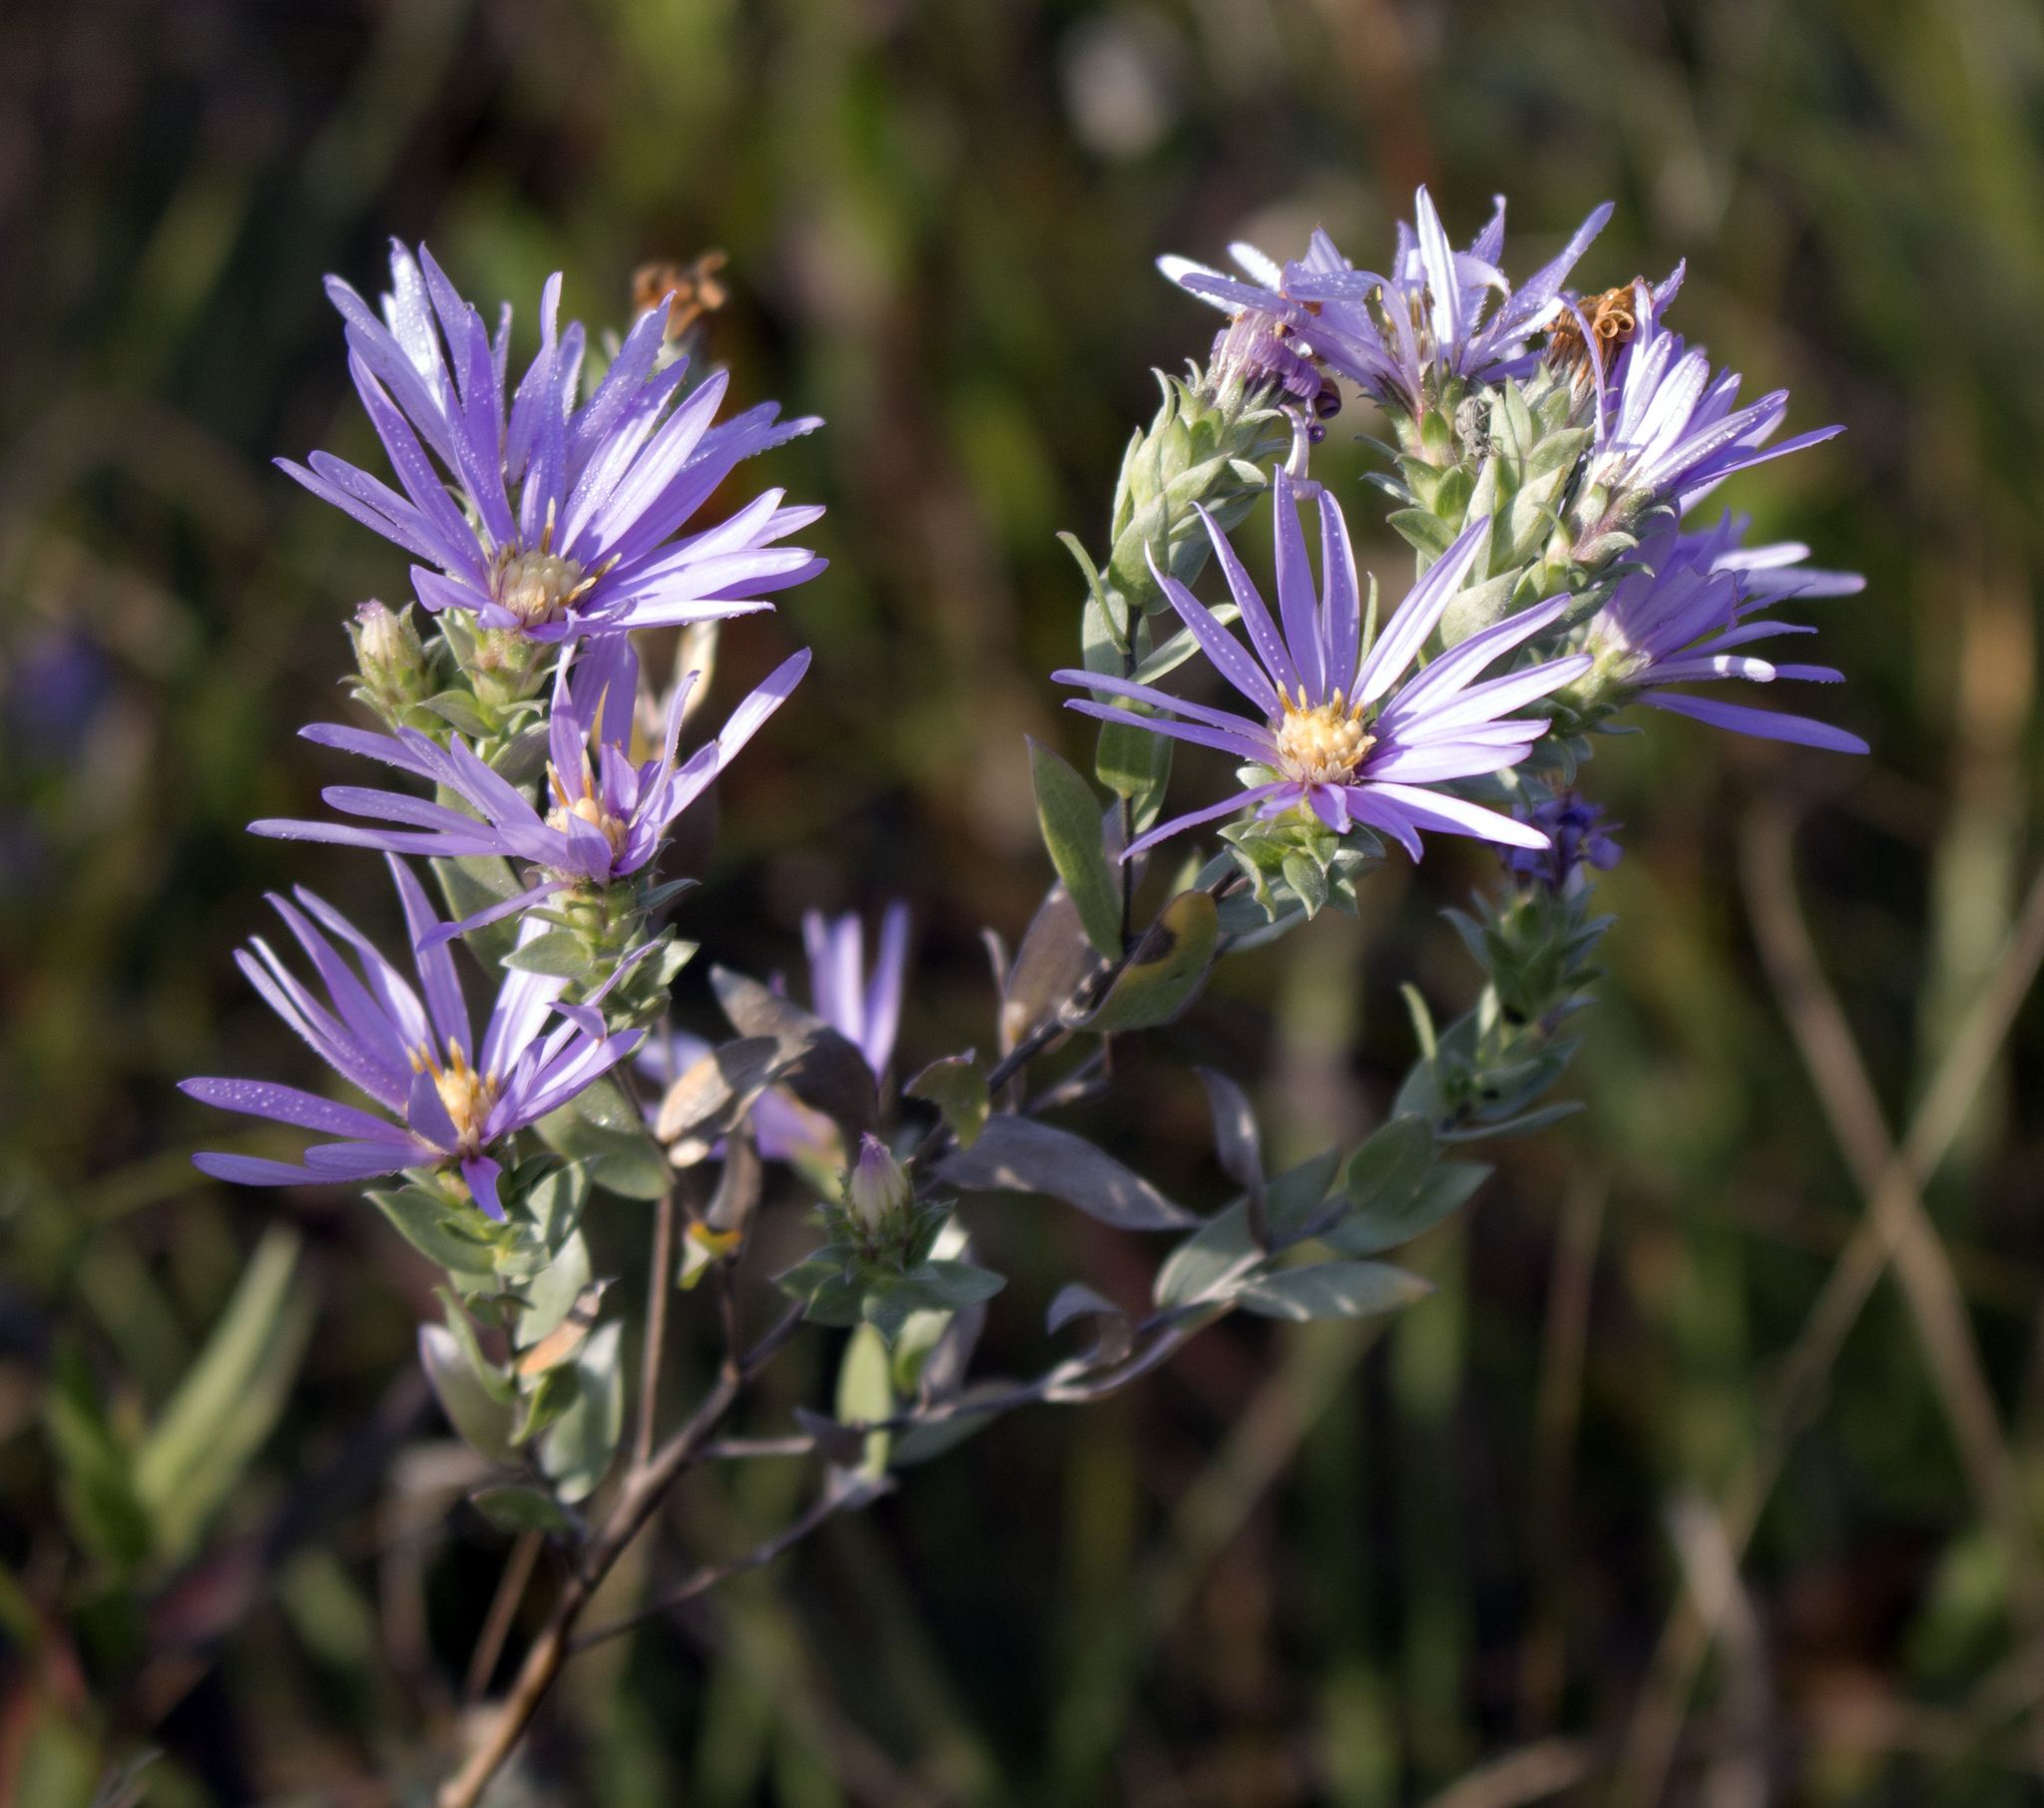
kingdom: Plantae
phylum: Tracheophyta
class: Magnoliopsida
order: Asterales
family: Asteraceae
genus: Symphyotrichum
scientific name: Symphyotrichum sericeum
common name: Silky aster
